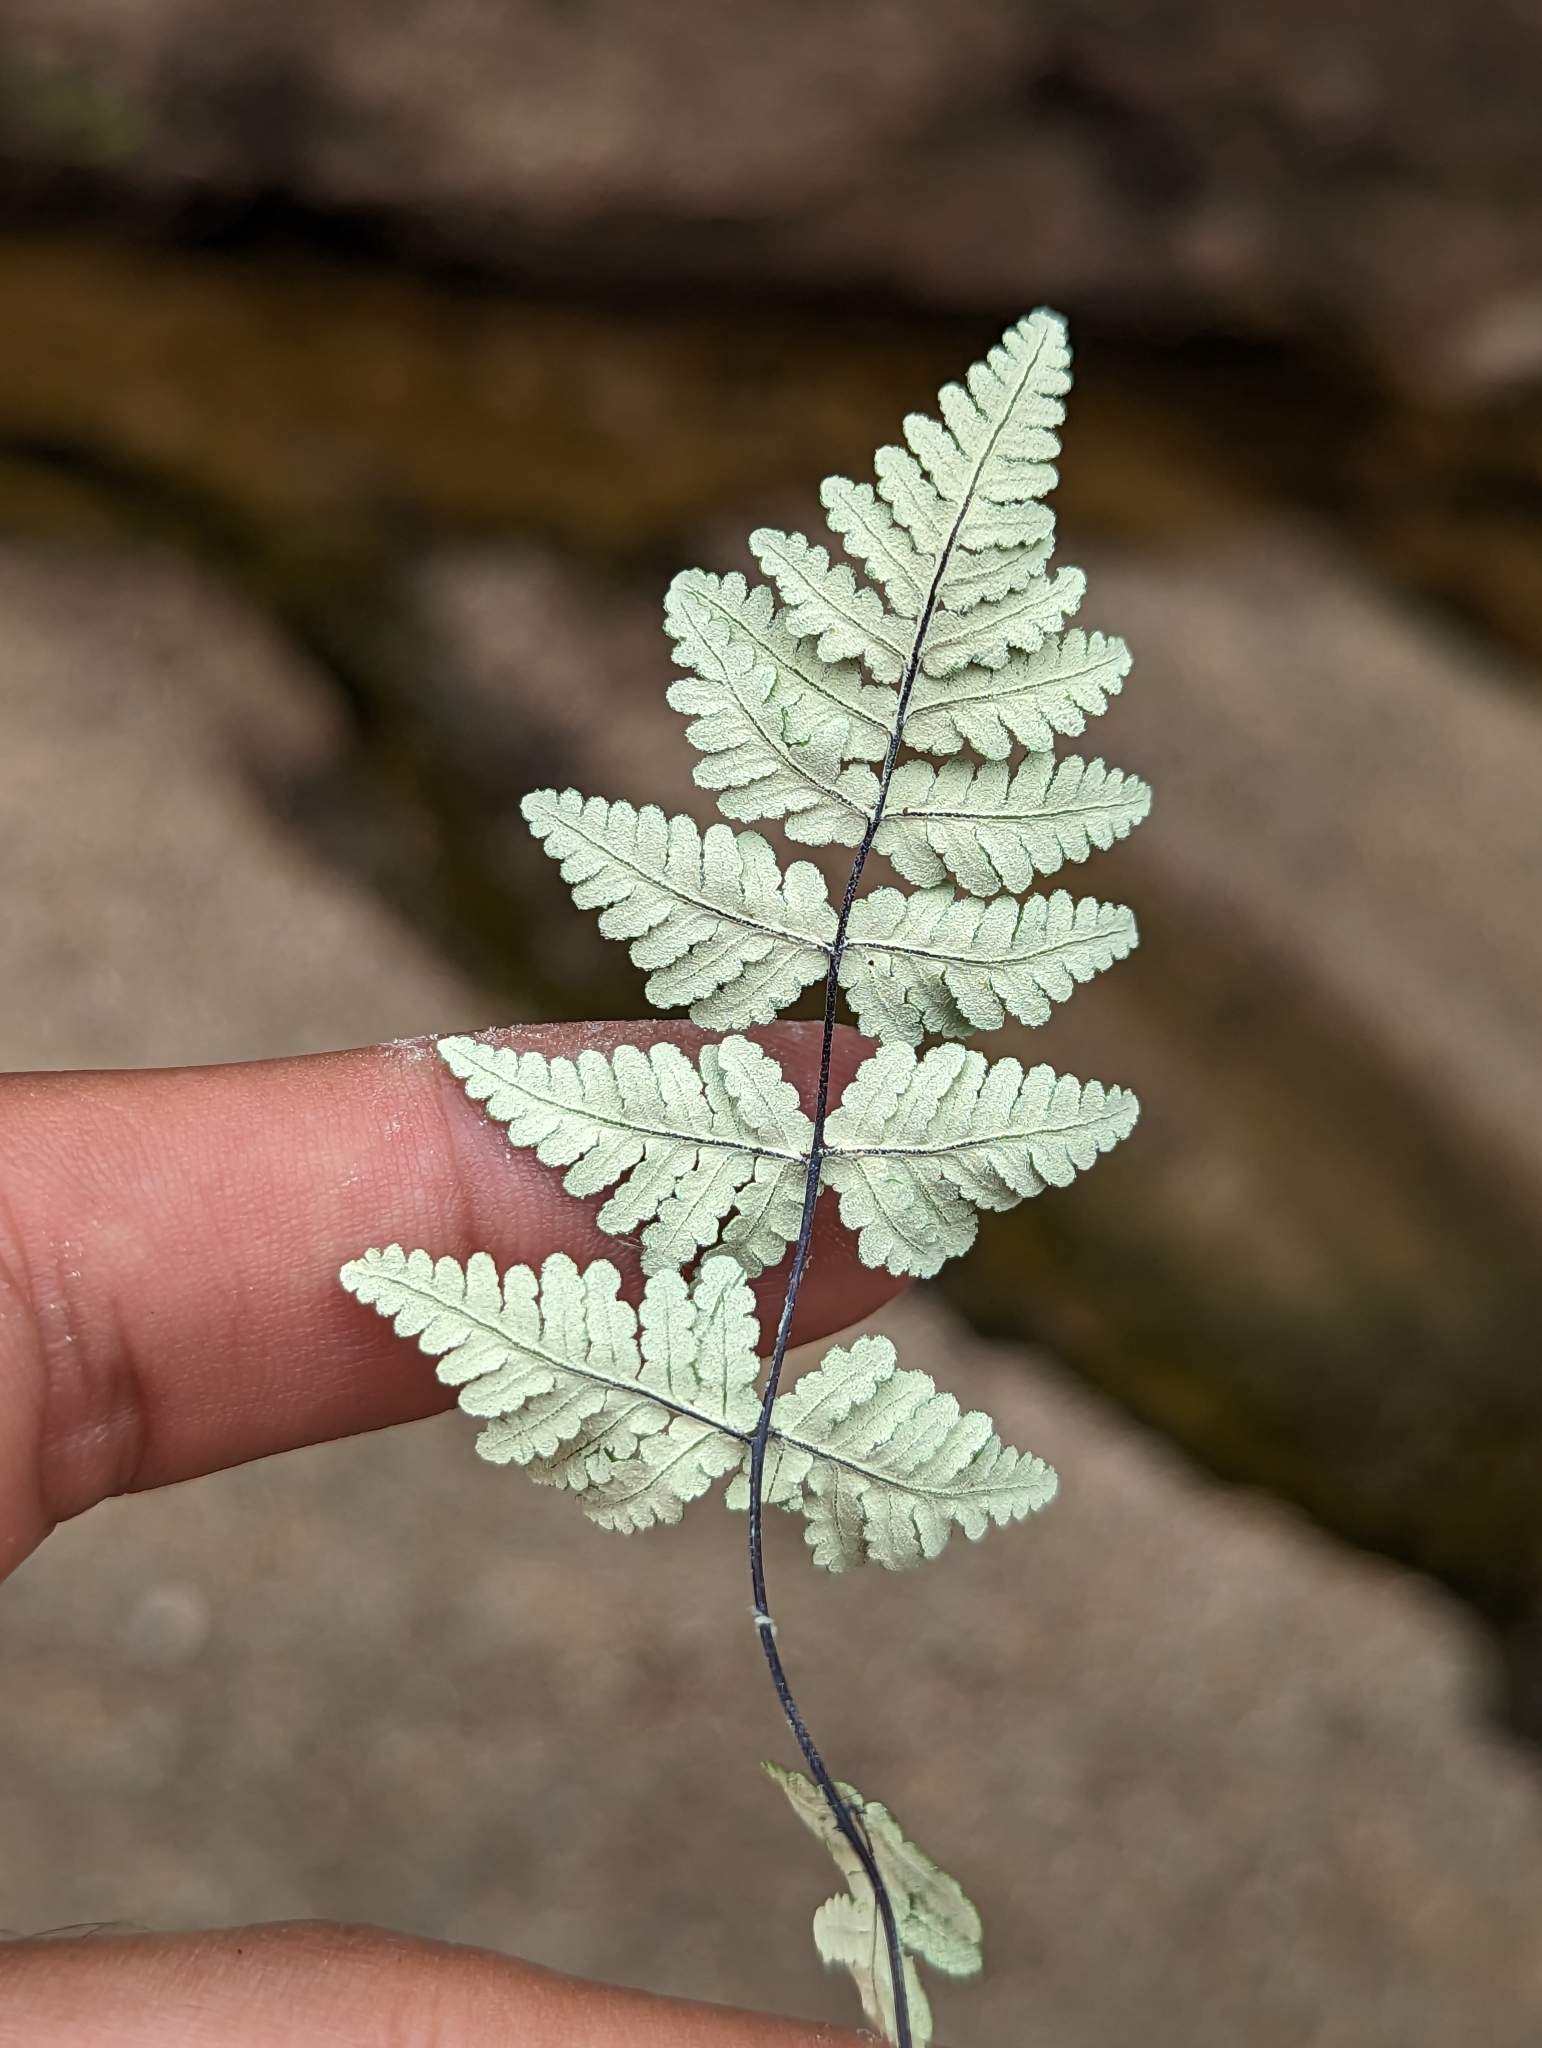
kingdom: Plantae
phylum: Tracheophyta
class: Polypodiopsida
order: Polypodiales
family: Pteridaceae
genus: Notholaena
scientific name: Notholaena lemmonii
